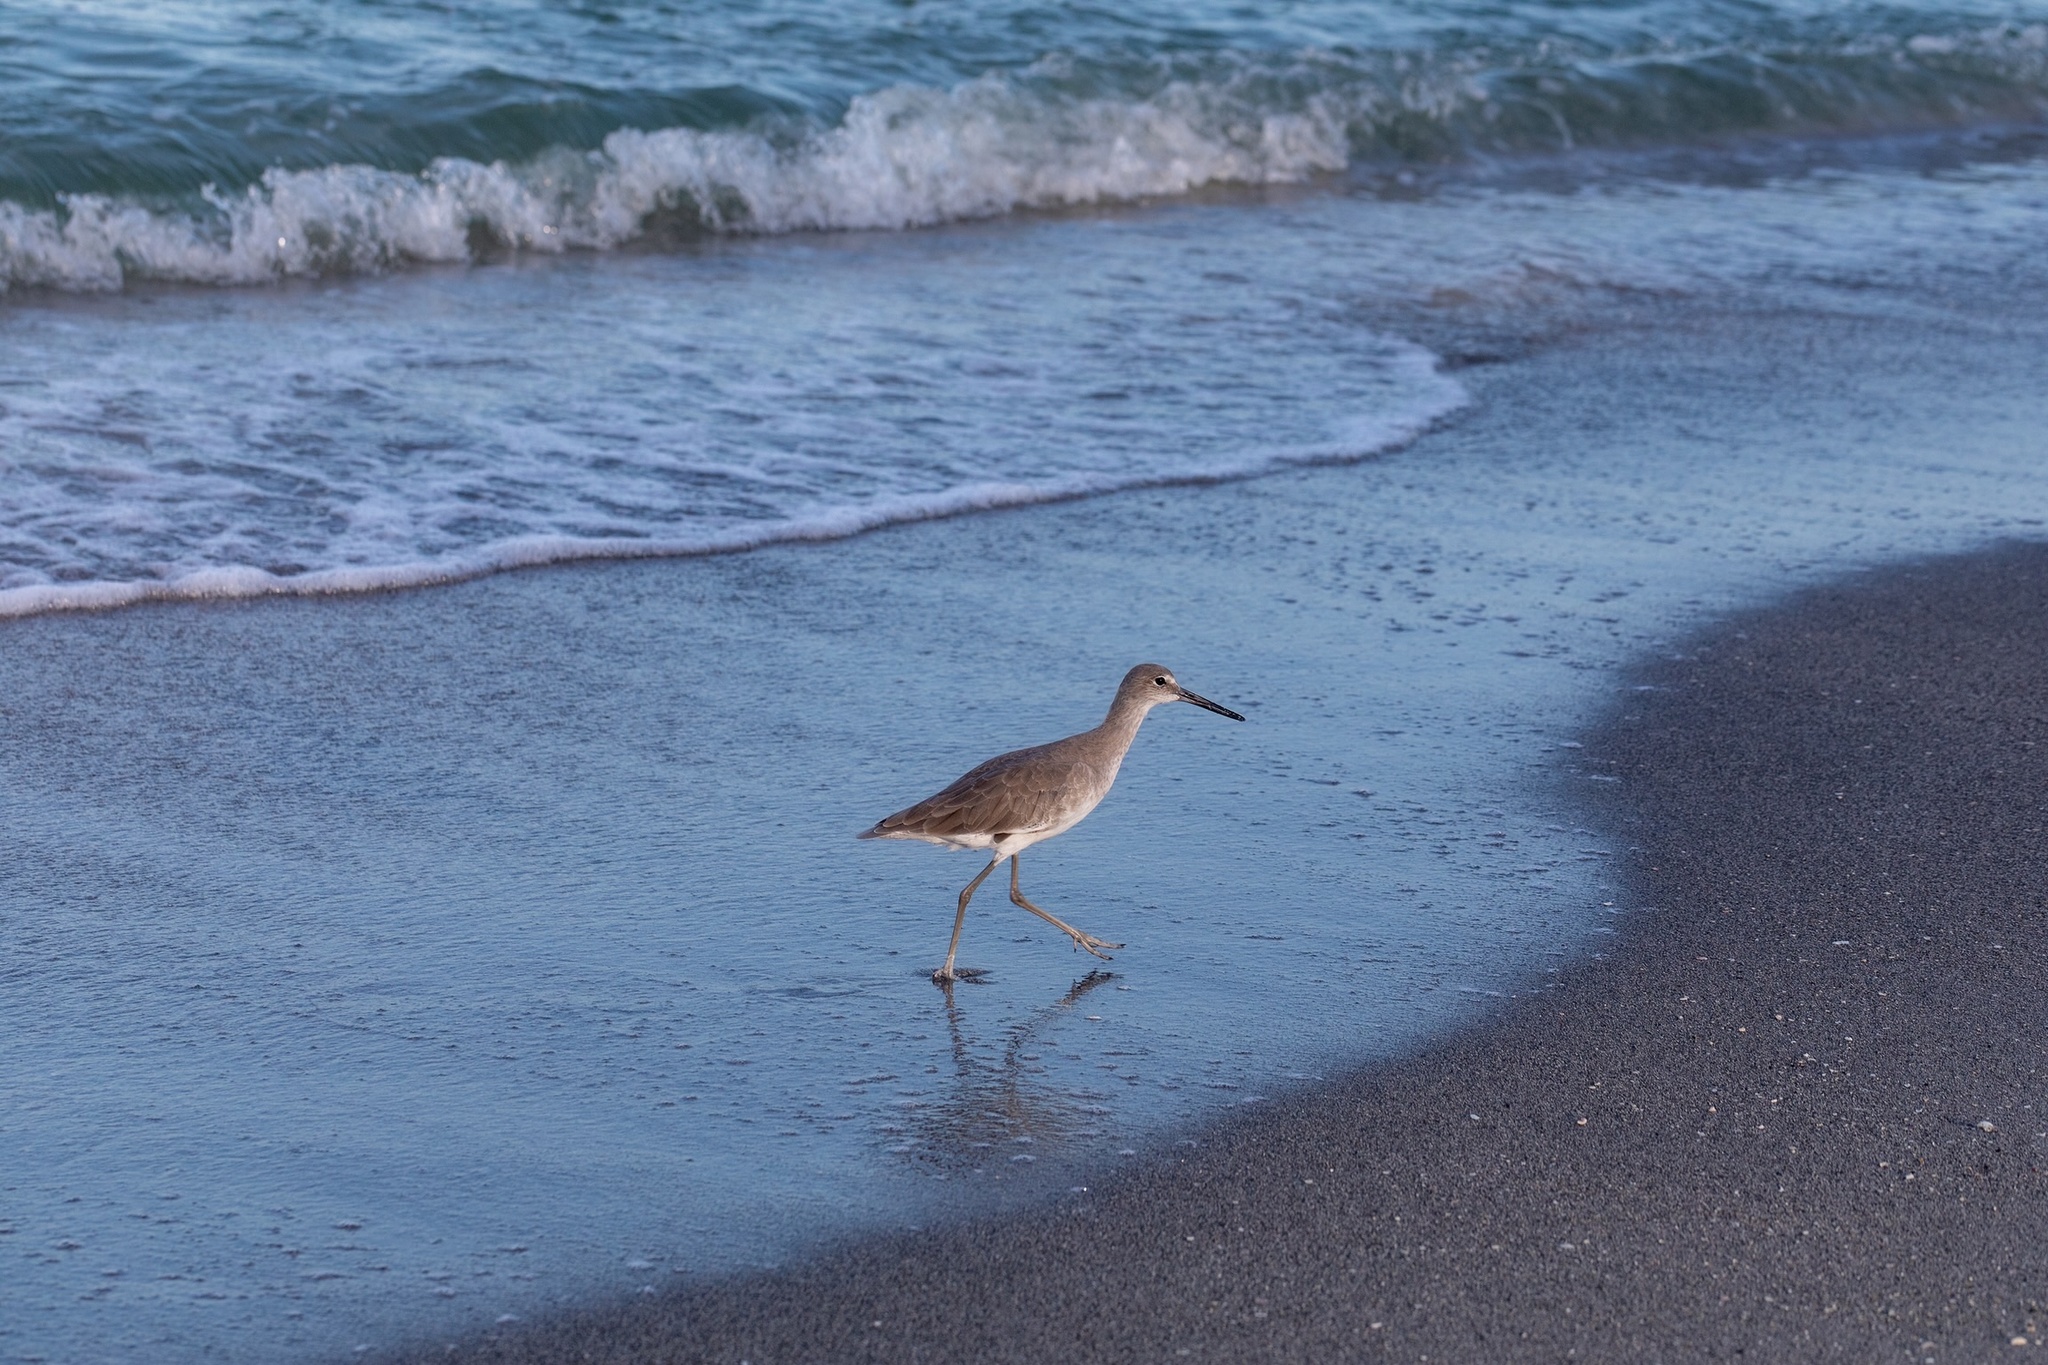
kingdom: Animalia
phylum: Chordata
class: Aves
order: Charadriiformes
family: Scolopacidae
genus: Tringa
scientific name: Tringa semipalmata
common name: Willet
